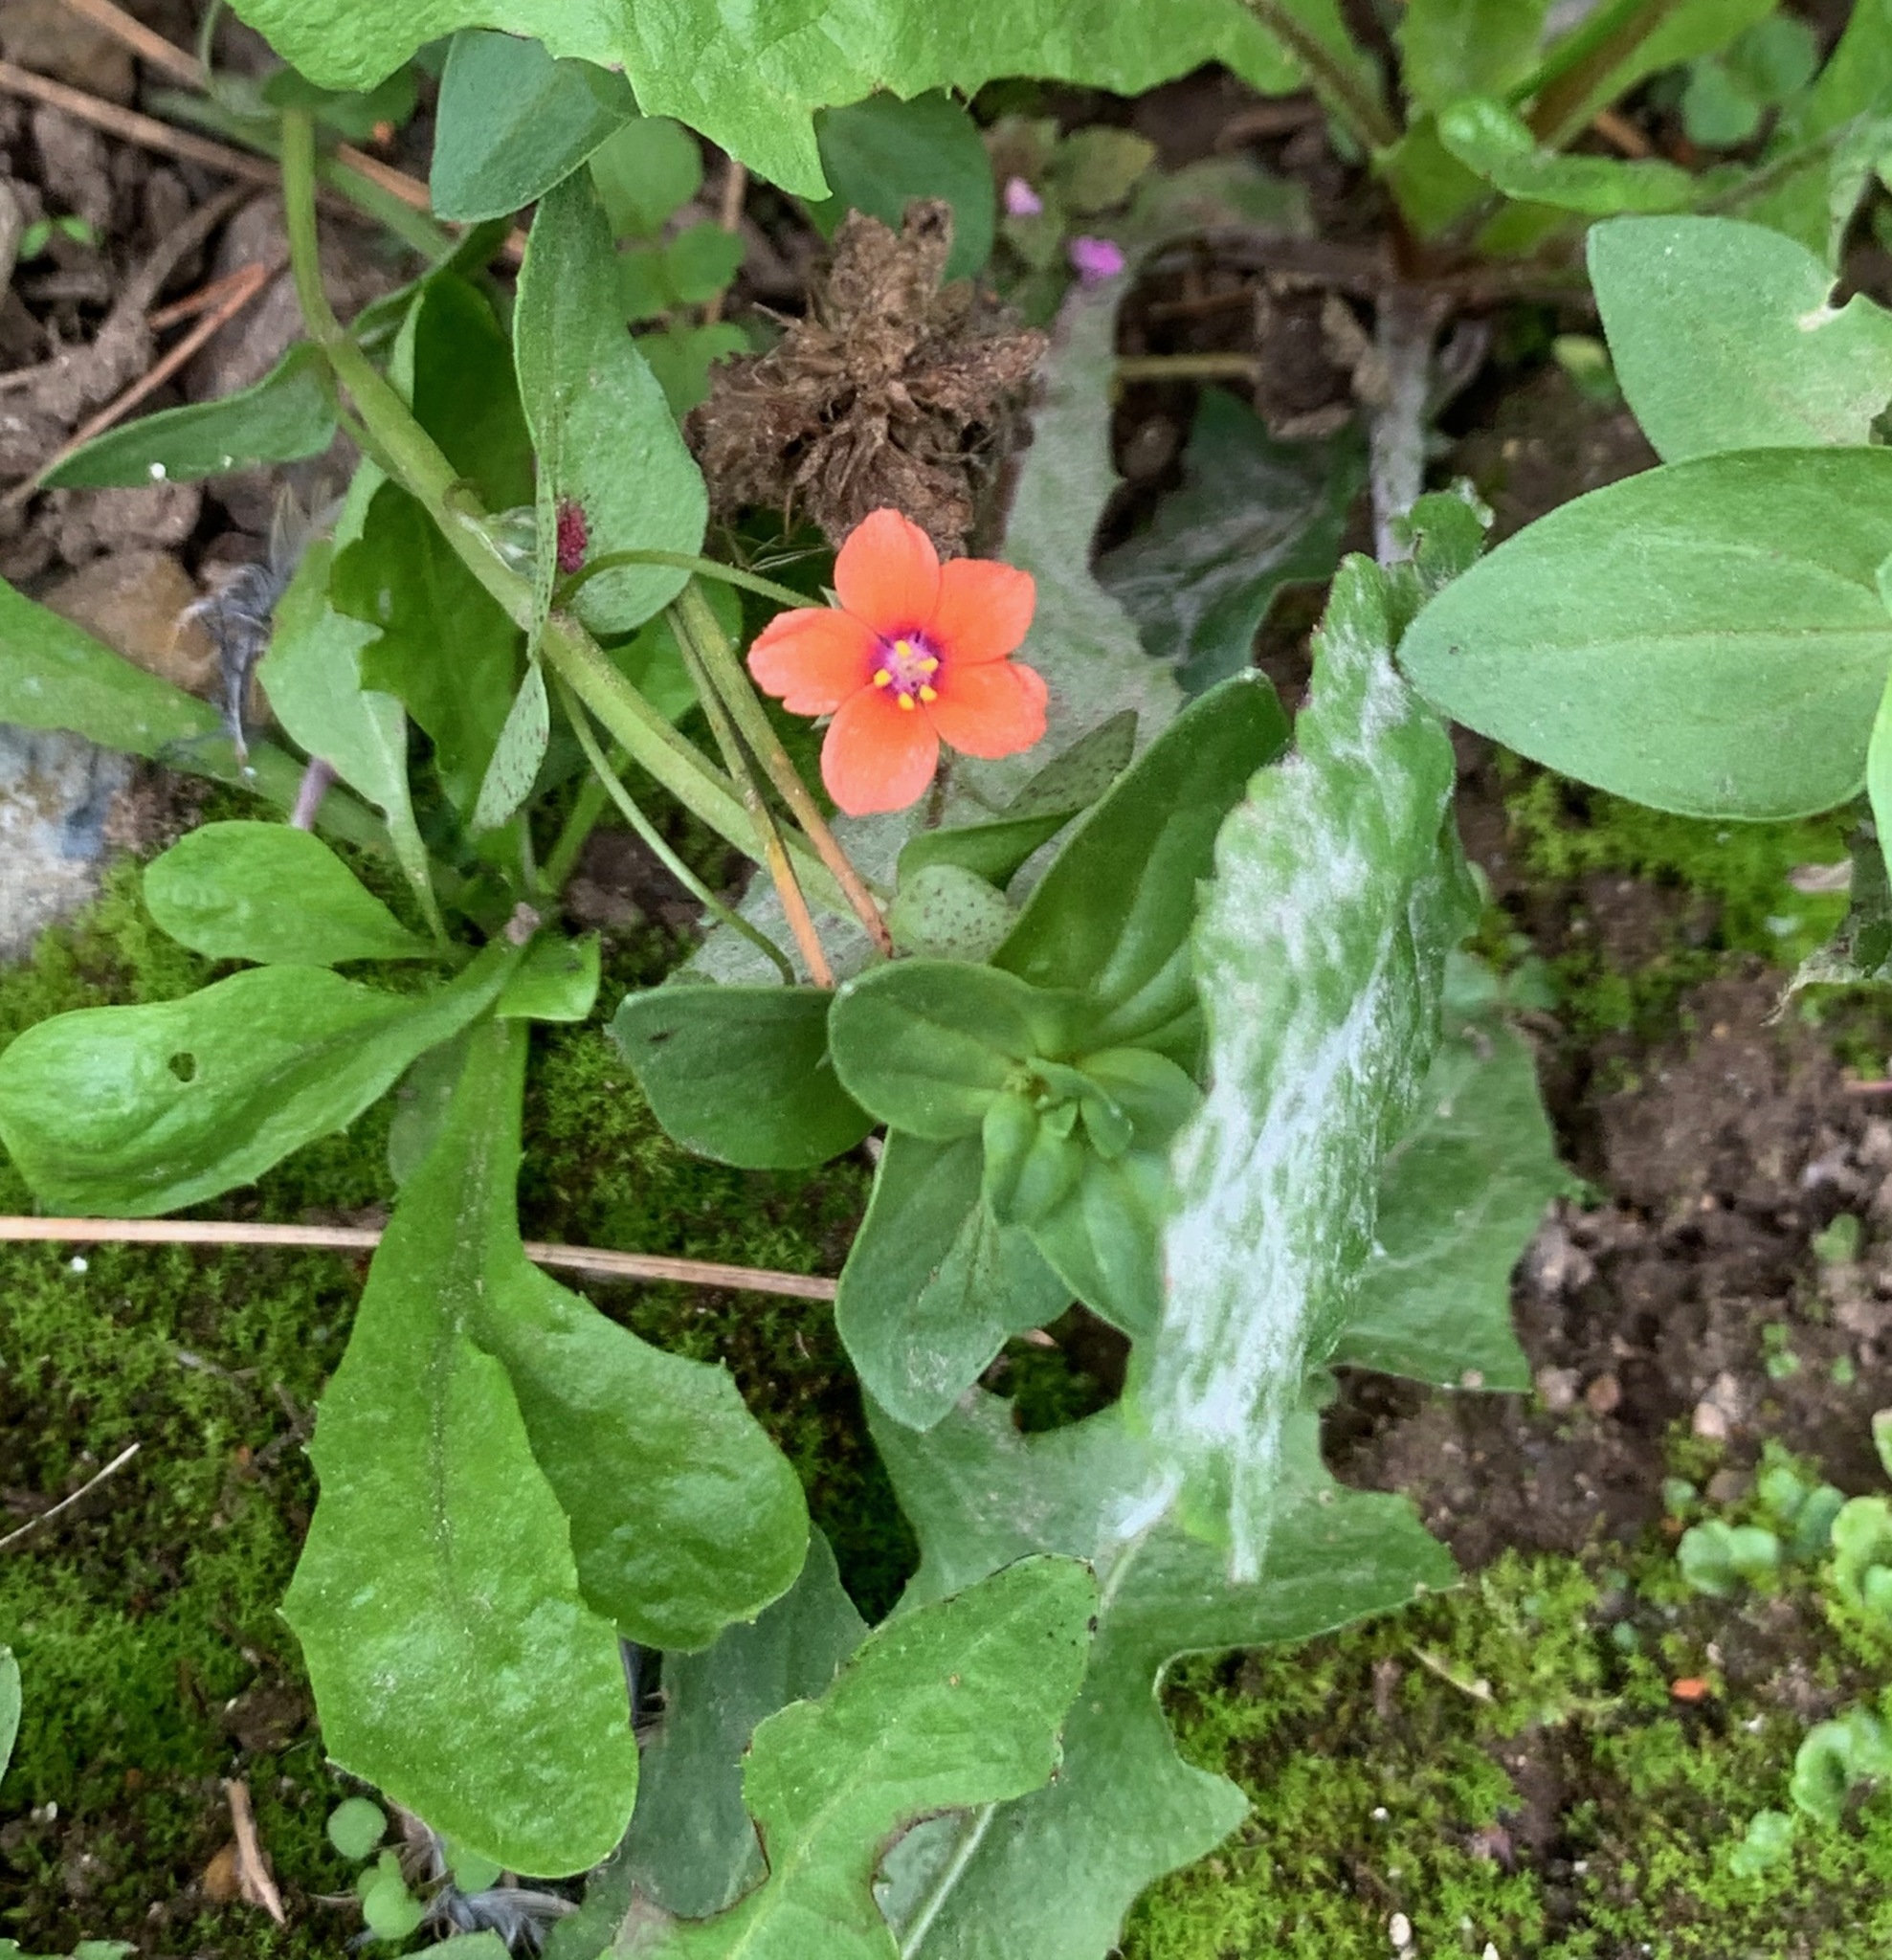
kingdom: Plantae
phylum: Tracheophyta
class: Magnoliopsida
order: Ericales
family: Primulaceae
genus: Lysimachia
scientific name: Lysimachia arvensis
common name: Scarlet pimpernel
